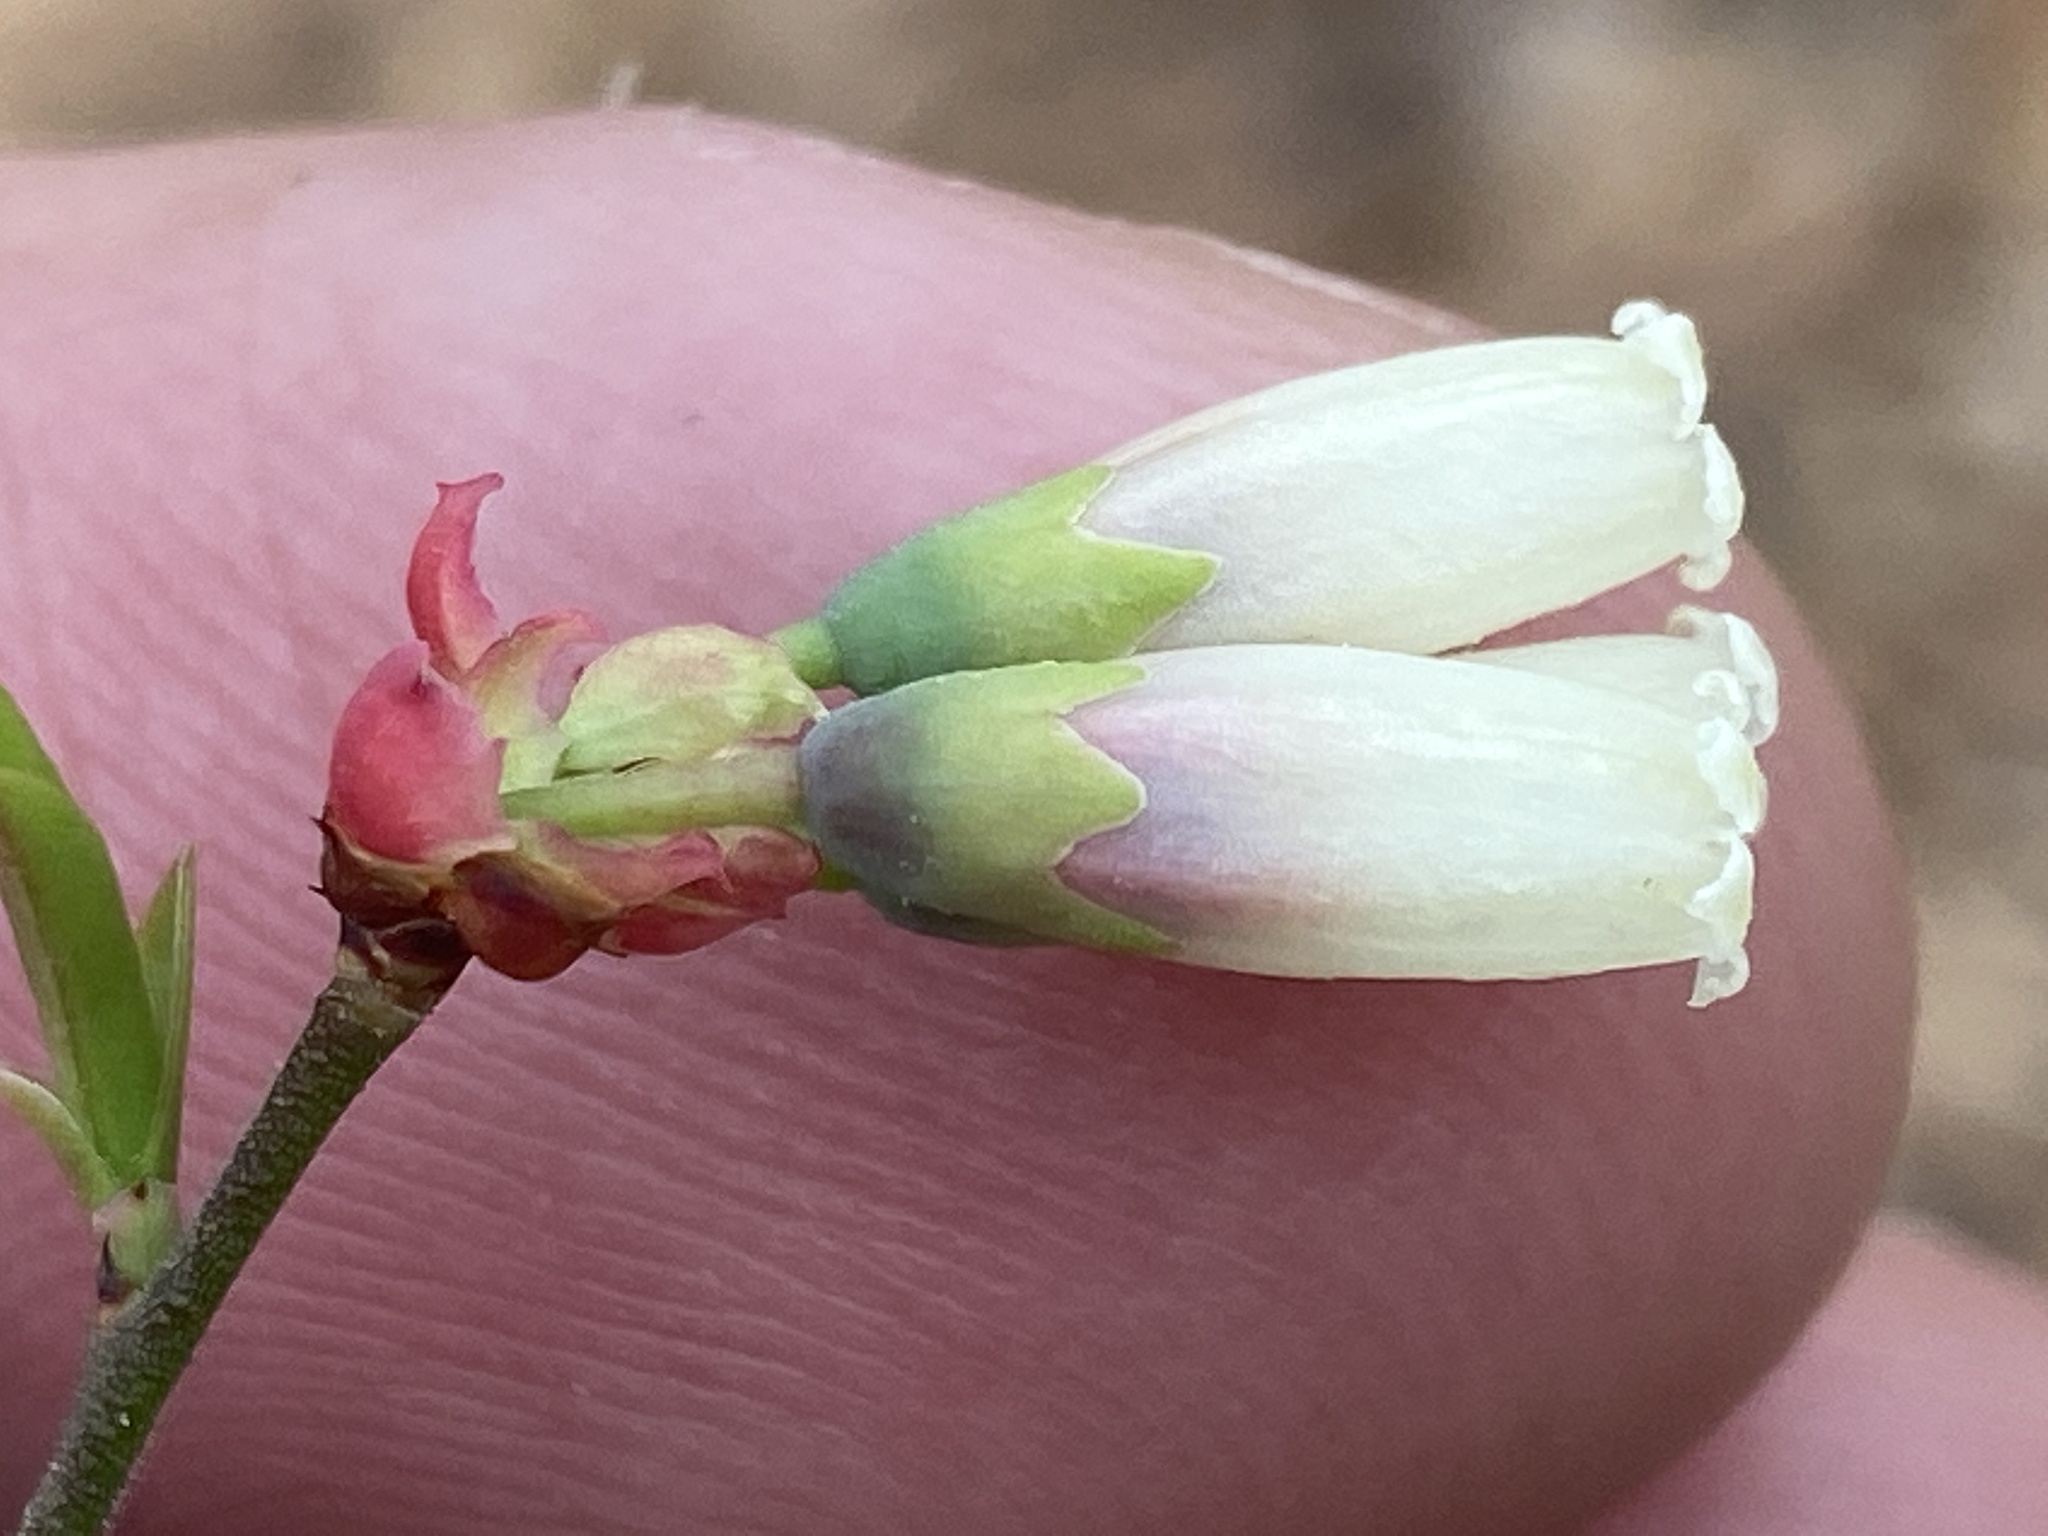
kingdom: Plantae
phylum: Tracheophyta
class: Magnoliopsida
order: Ericales
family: Ericaceae
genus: Vaccinium
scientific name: Vaccinium corymbosum
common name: Blueberry
